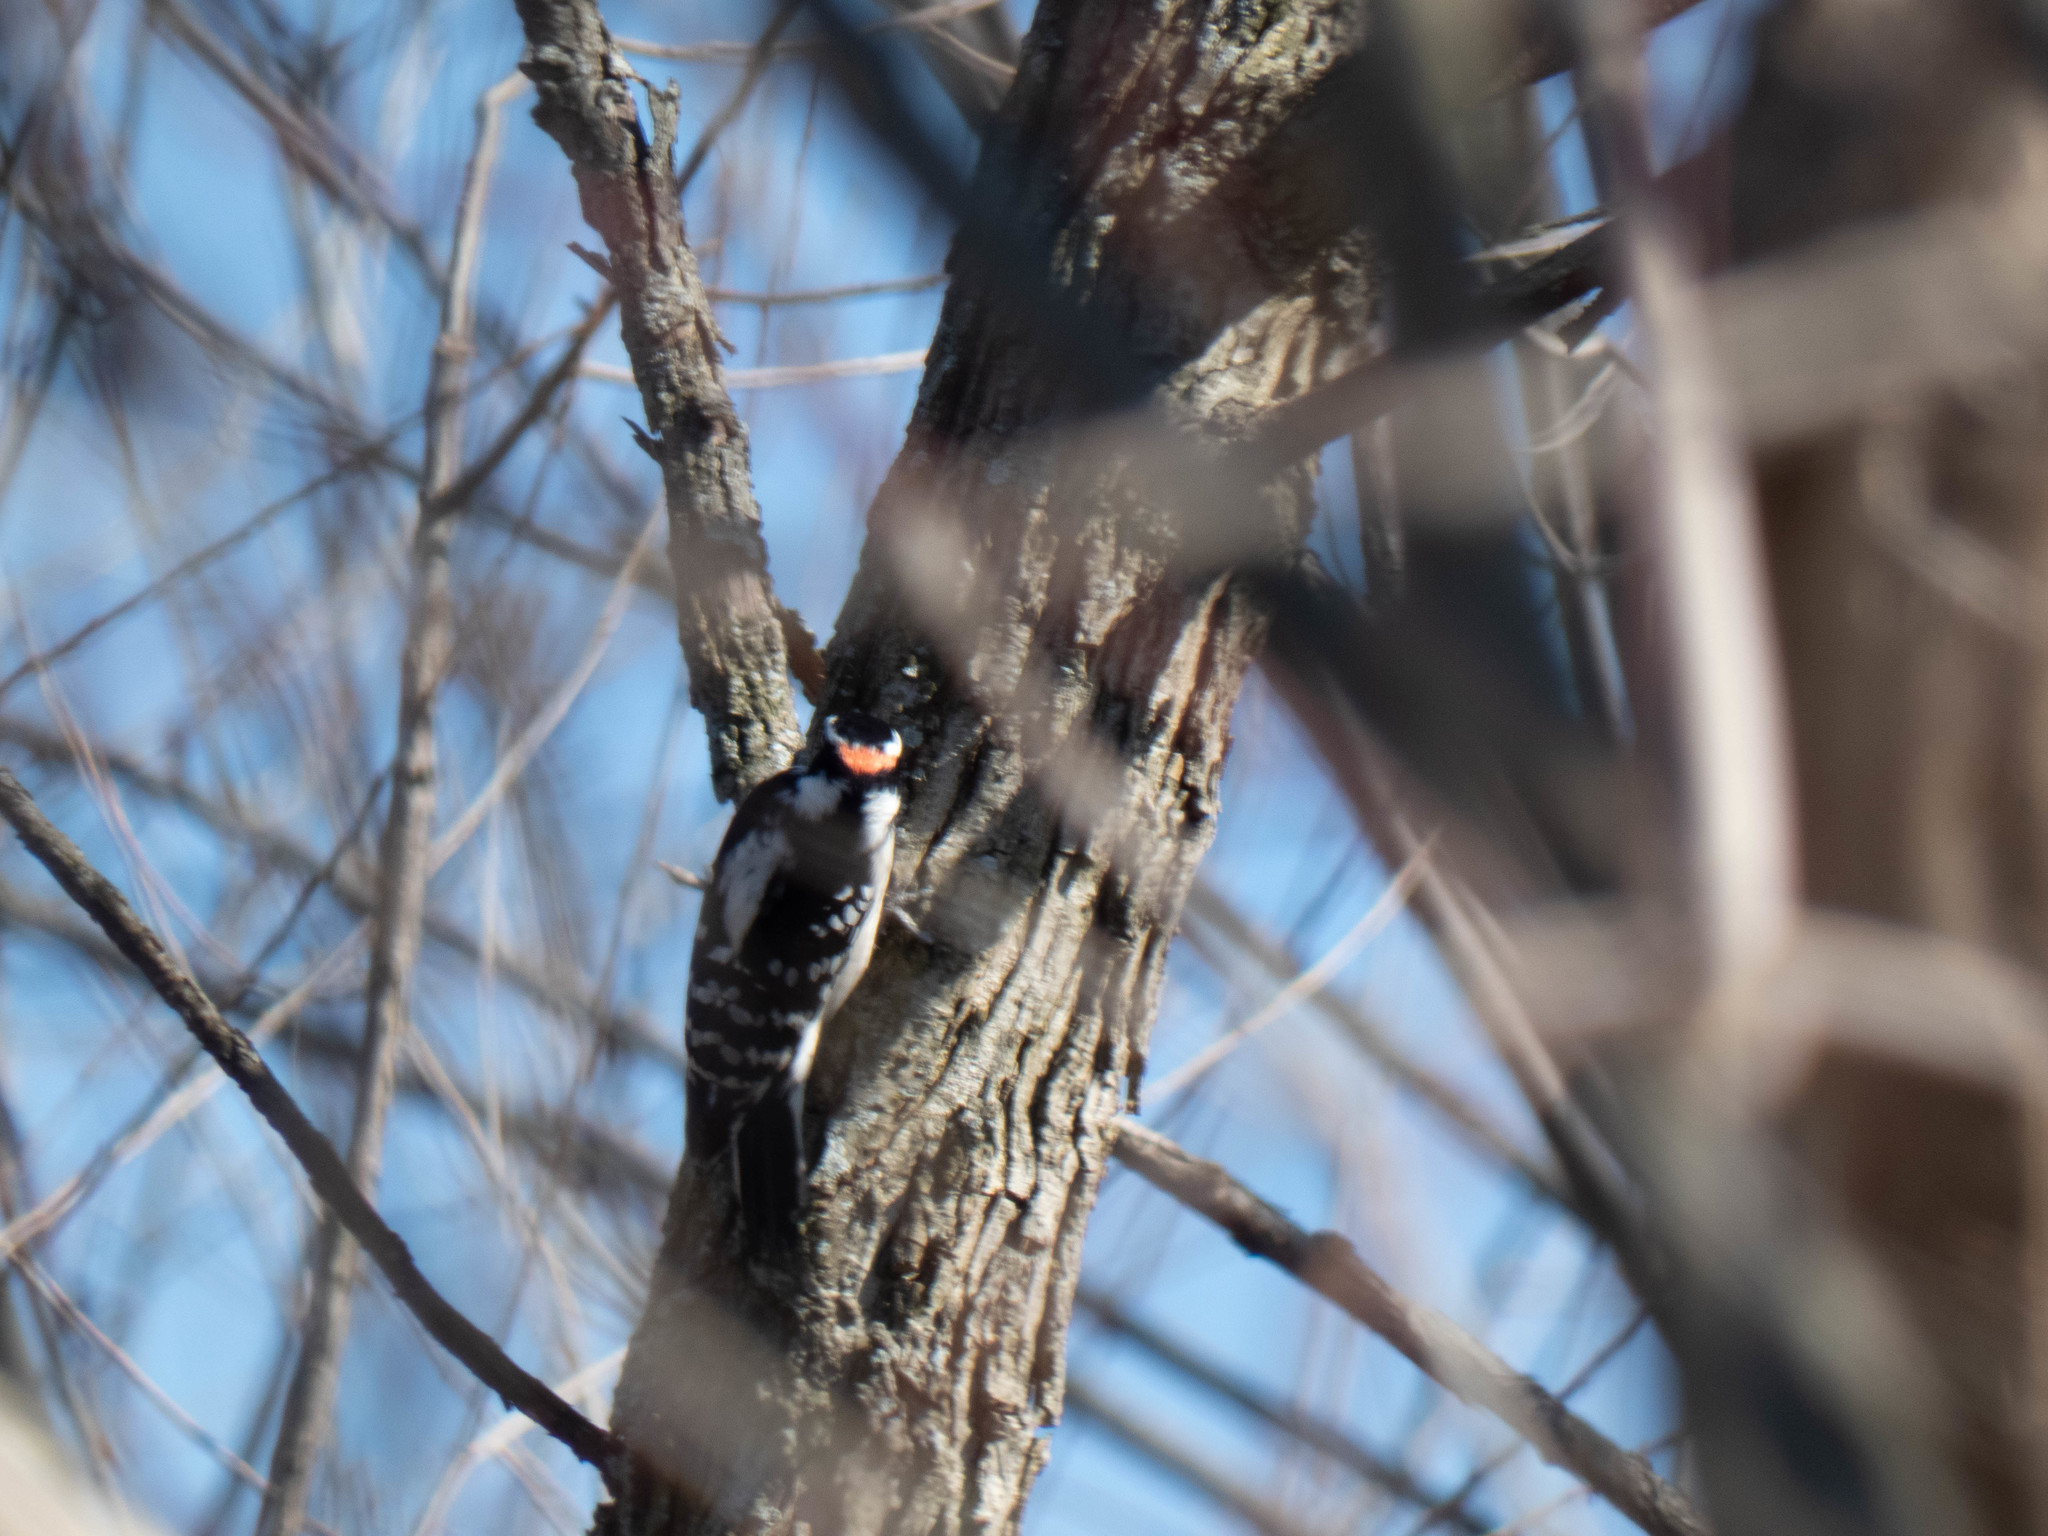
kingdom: Animalia
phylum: Chordata
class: Aves
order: Piciformes
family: Picidae
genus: Dryobates
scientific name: Dryobates pubescens
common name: Downy woodpecker
